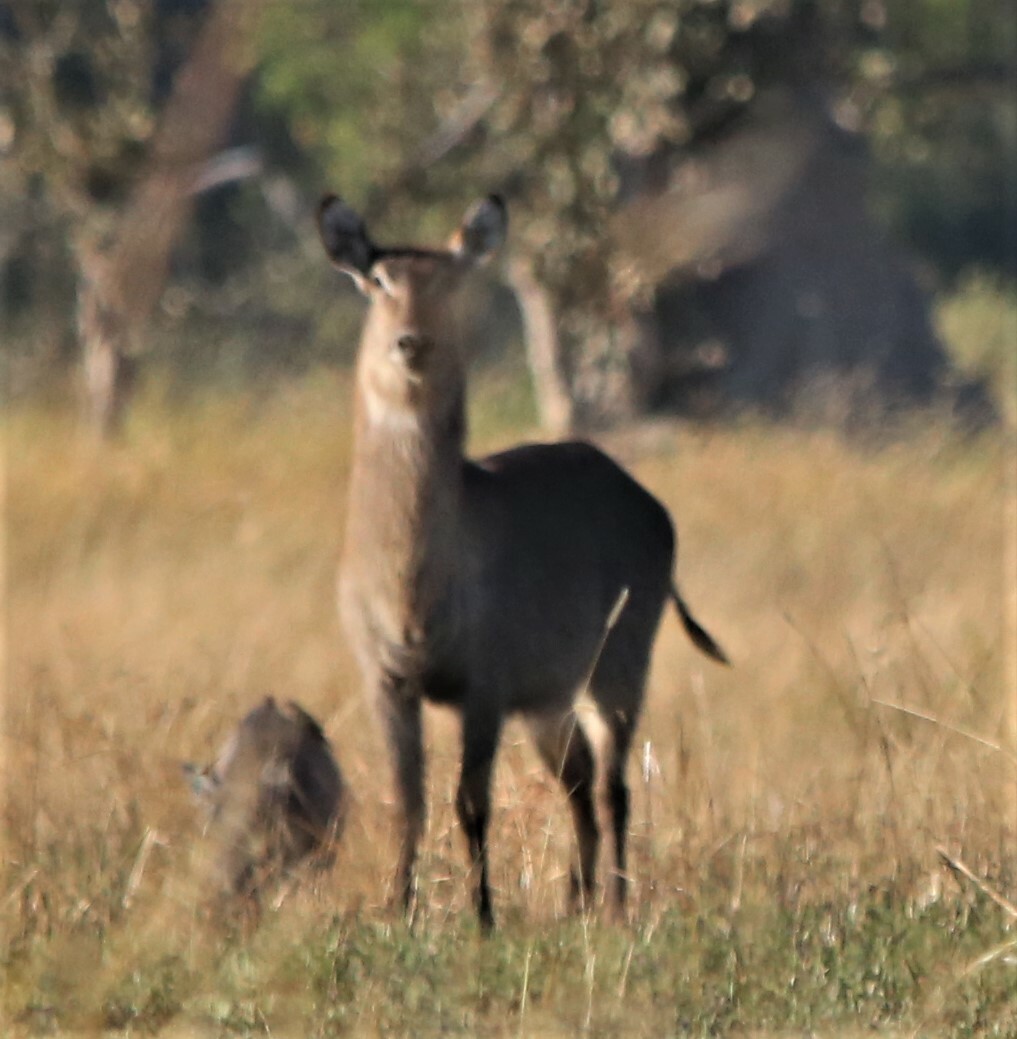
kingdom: Animalia
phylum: Chordata
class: Mammalia
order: Artiodactyla
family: Bovidae
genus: Kobus
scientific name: Kobus ellipsiprymnus
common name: Waterbuck
